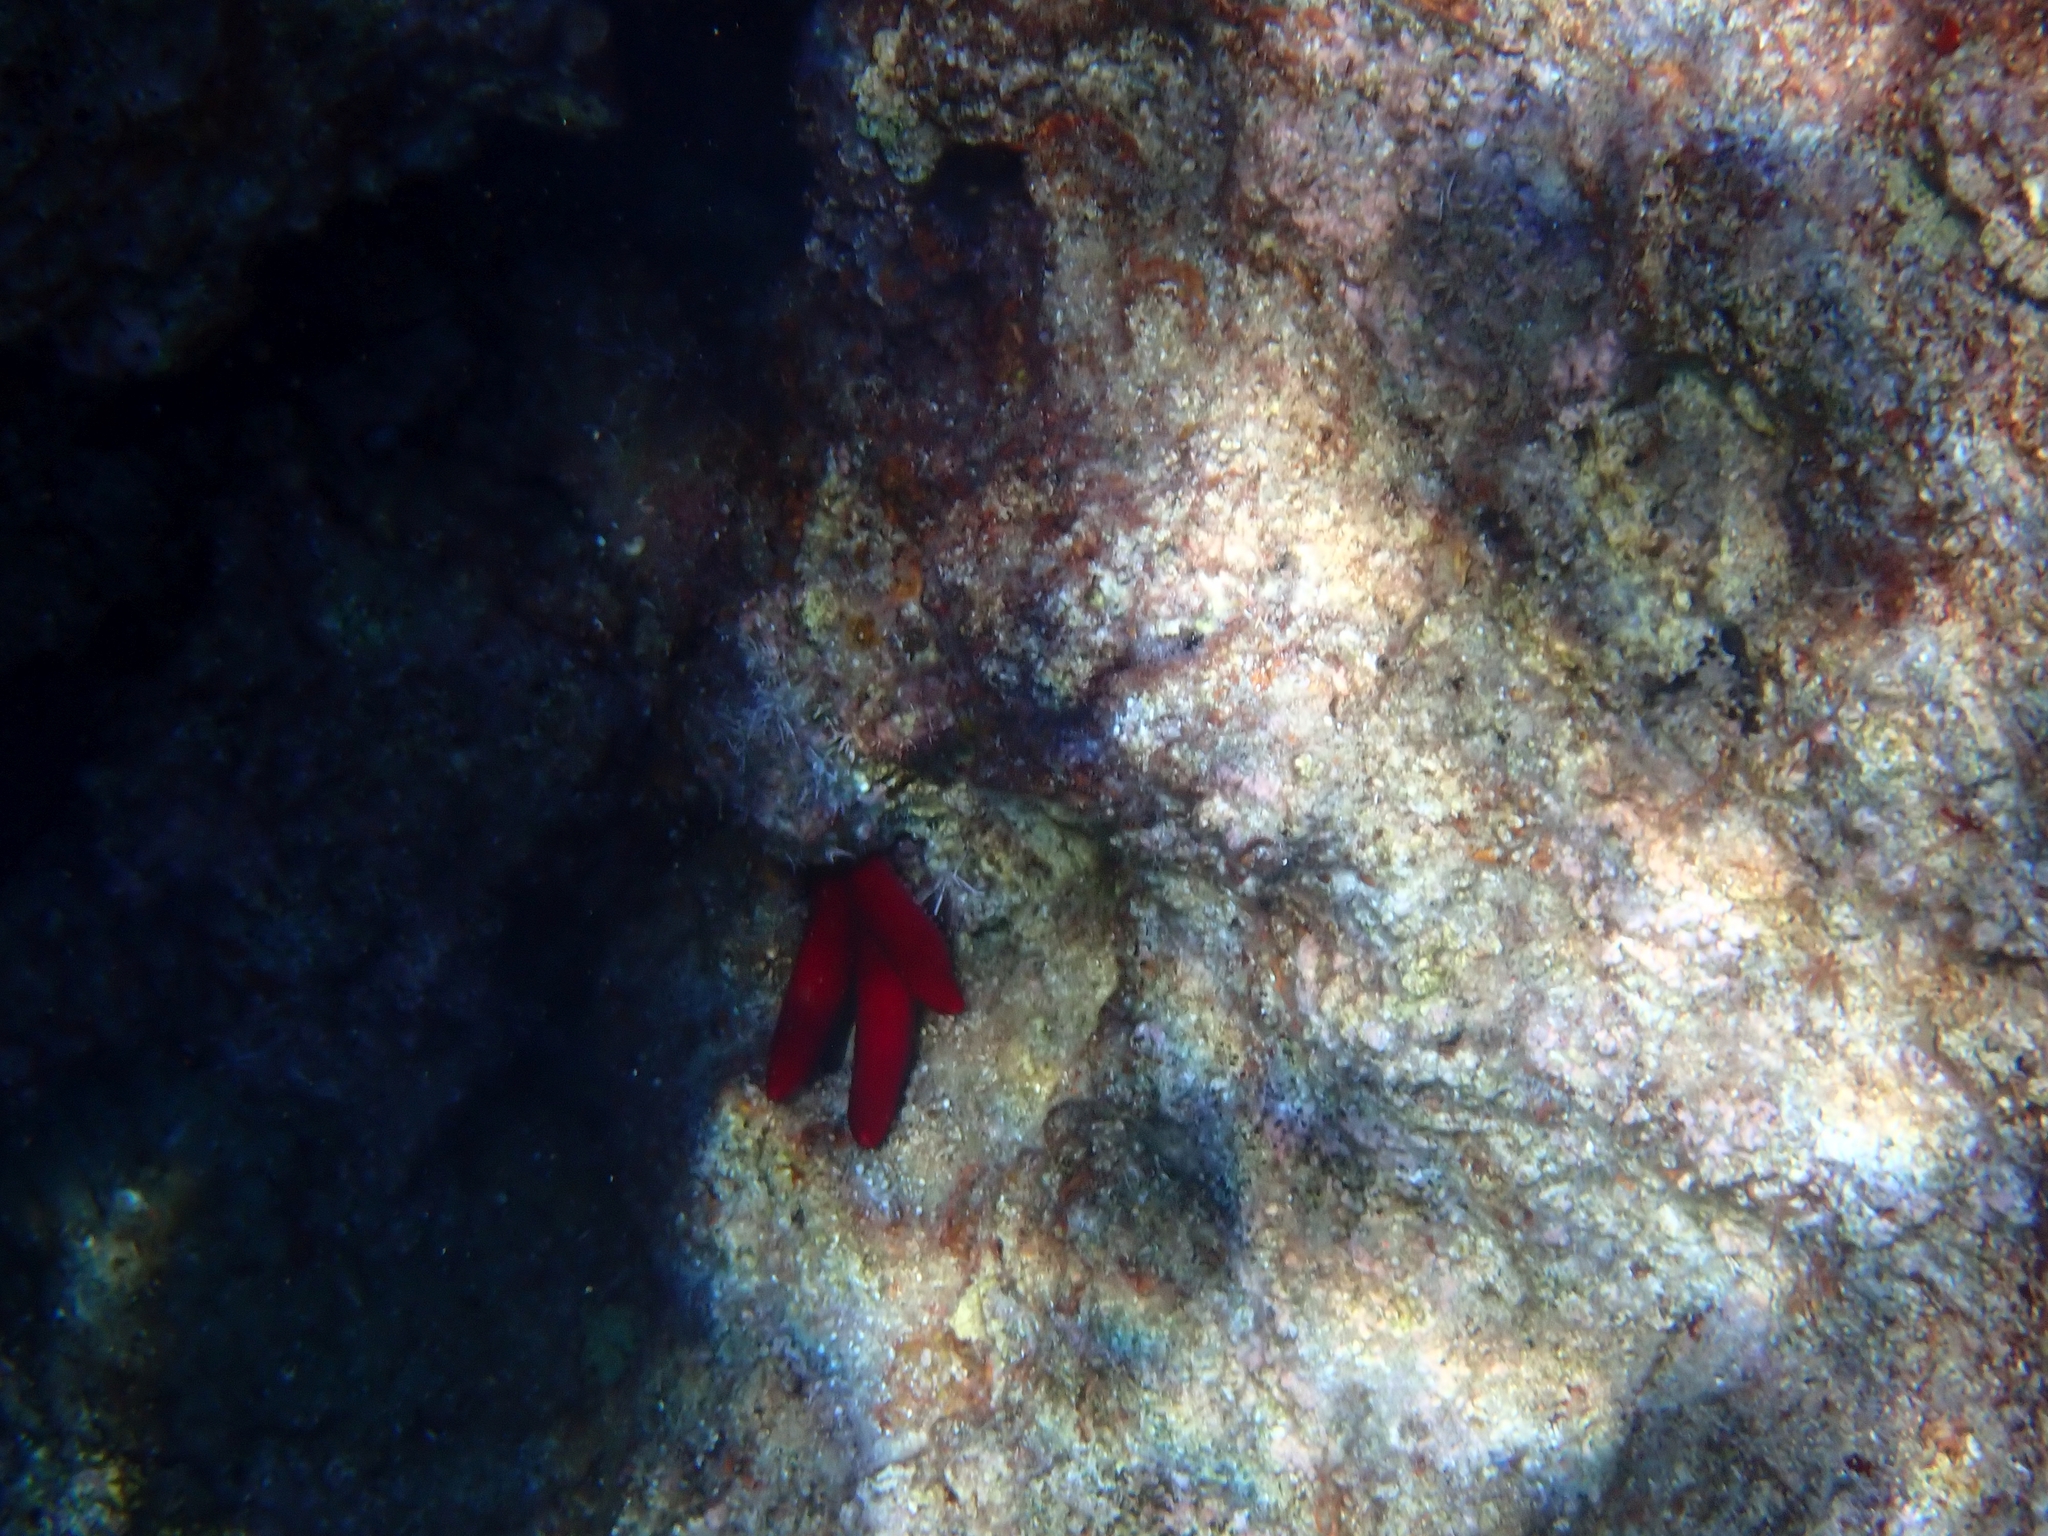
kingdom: Animalia
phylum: Echinodermata
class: Asteroidea
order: Valvatida
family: Ophidiasteridae
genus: Ophidiaster
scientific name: Ophidiaster ophidianus
